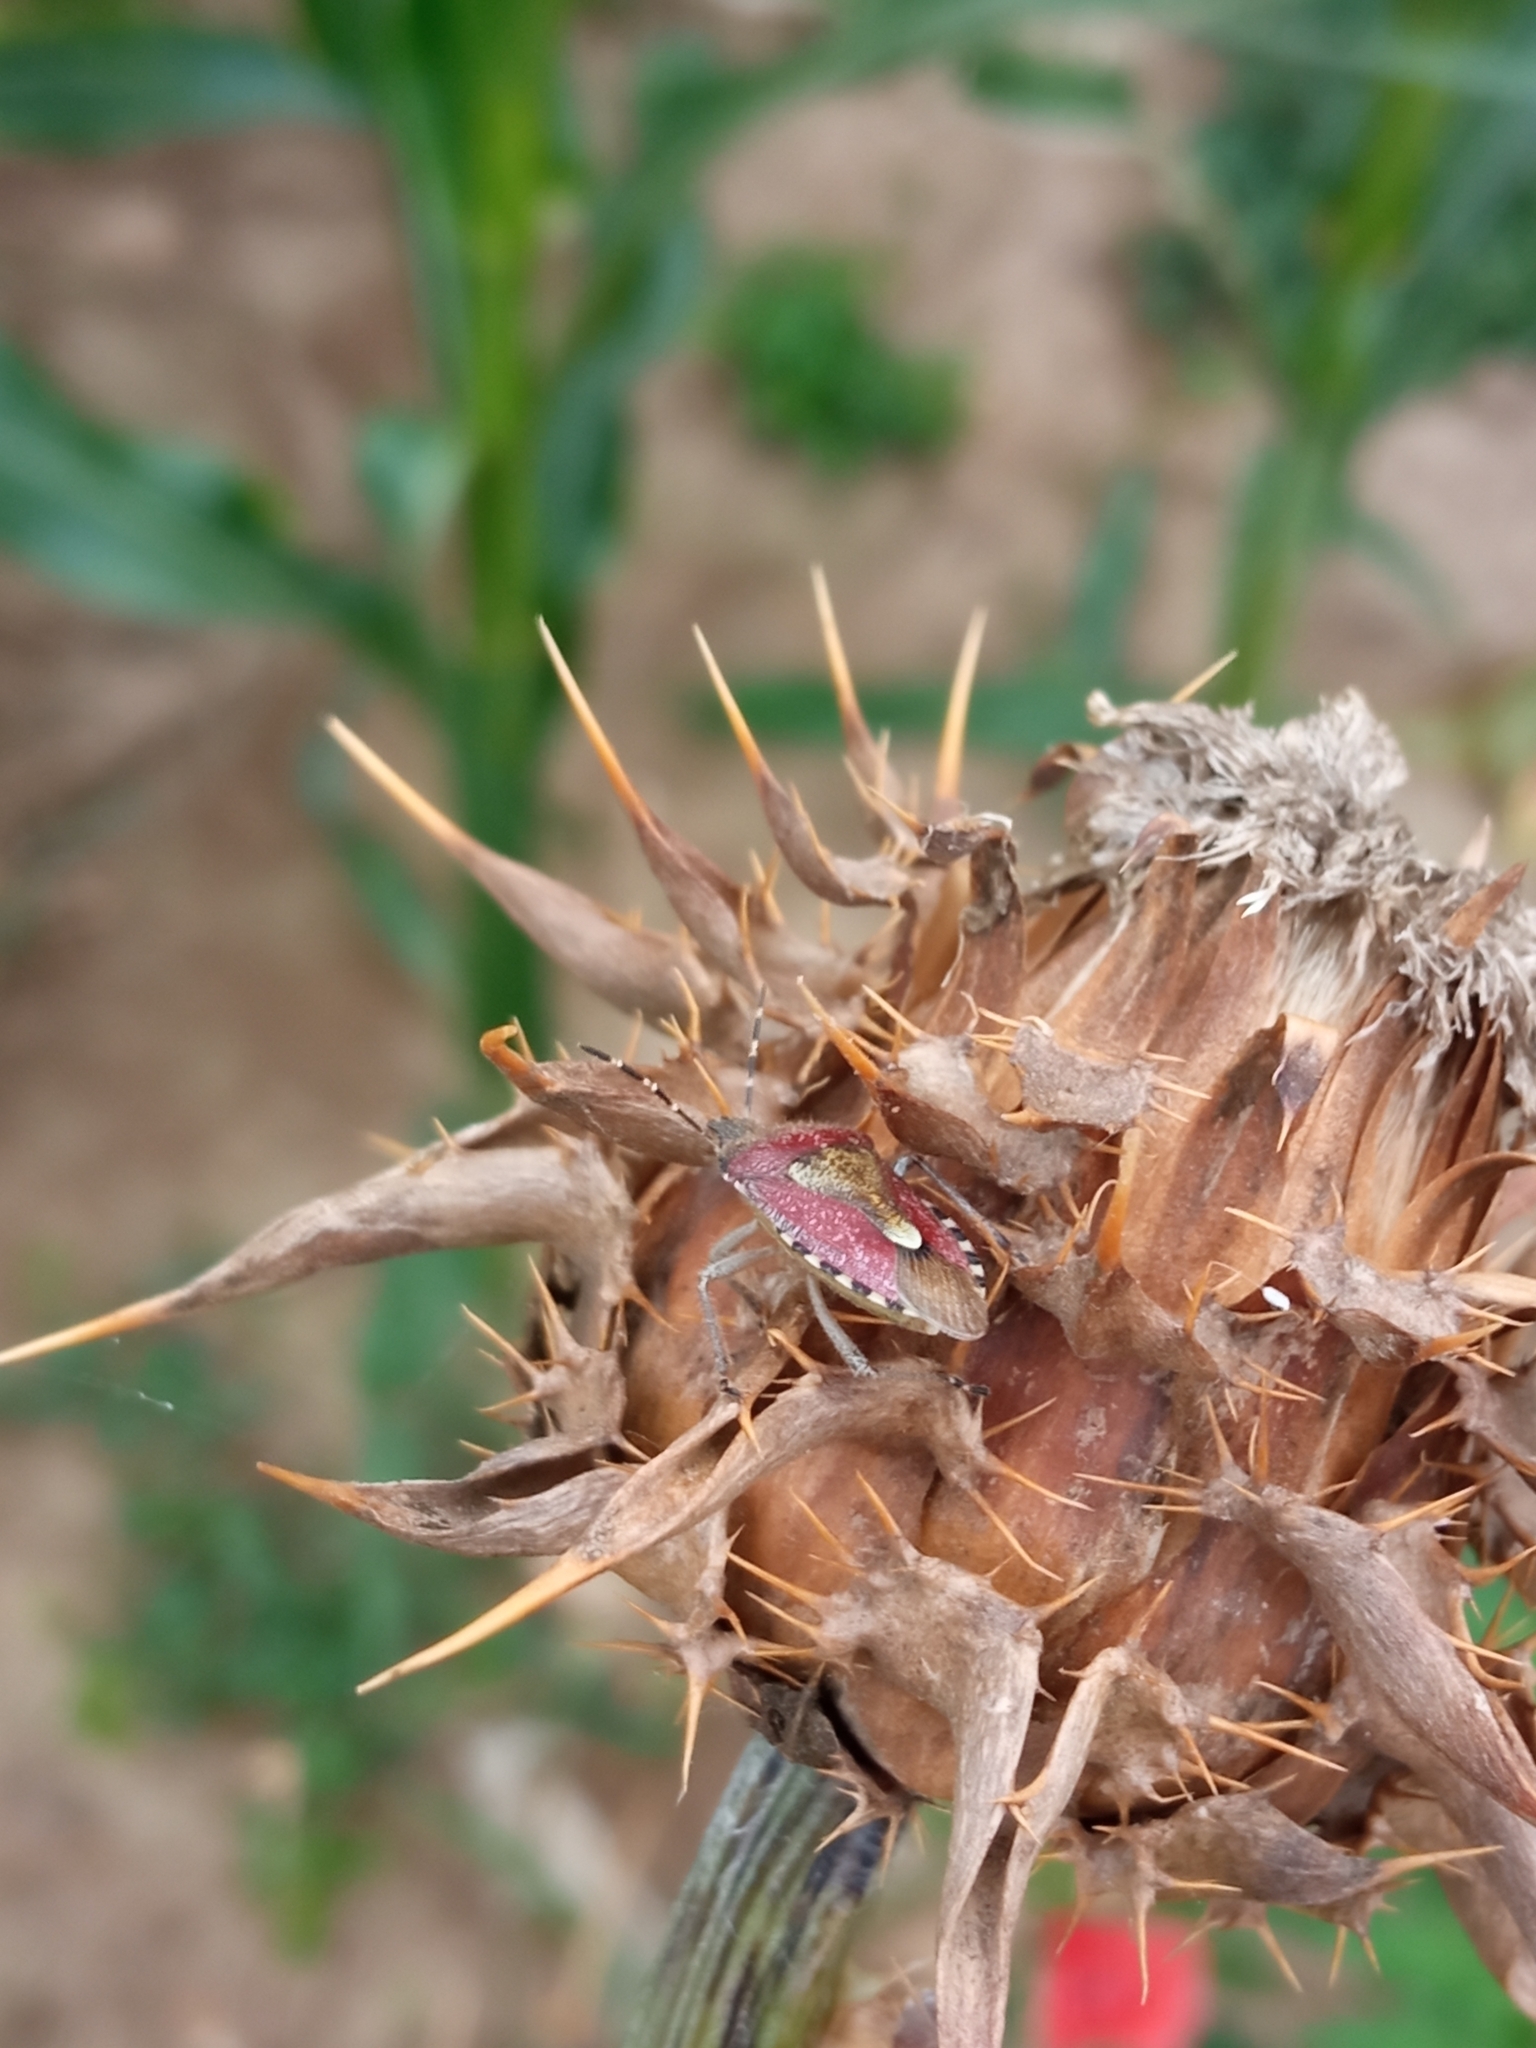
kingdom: Animalia
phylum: Arthropoda
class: Insecta
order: Hemiptera
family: Pentatomidae
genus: Dolycoris
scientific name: Dolycoris baccarum
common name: Sloe bug
